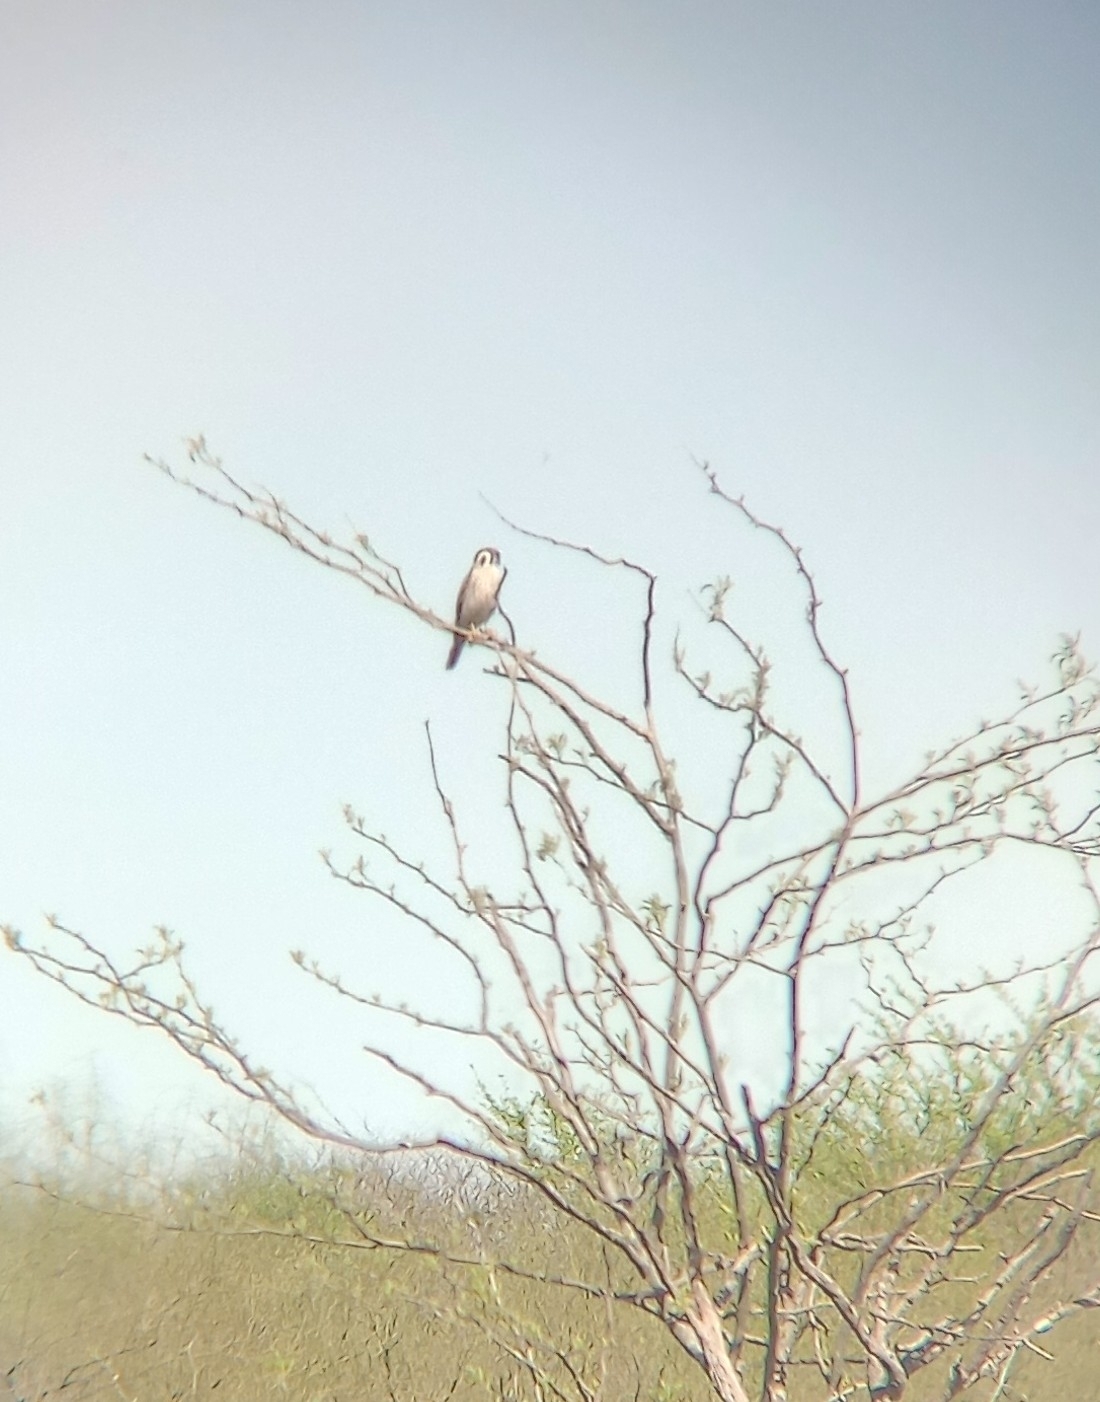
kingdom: Animalia
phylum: Chordata
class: Aves
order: Falconiformes
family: Falconidae
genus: Falco
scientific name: Falco sparverius
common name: American kestrel
